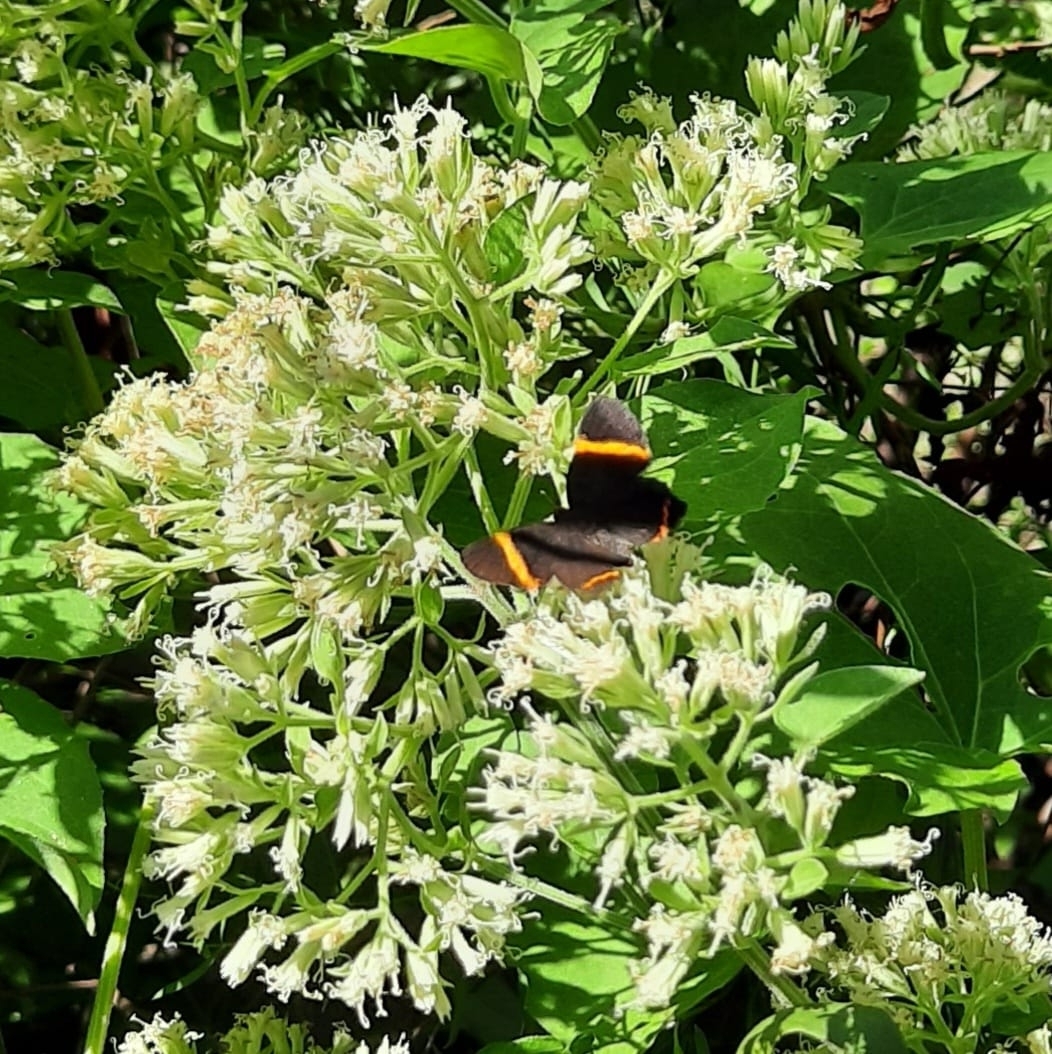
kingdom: Animalia
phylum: Arthropoda
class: Insecta
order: Lepidoptera
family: Riodinidae
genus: Riodina
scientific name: Riodina lysippoides
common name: Little dancer metalmark
